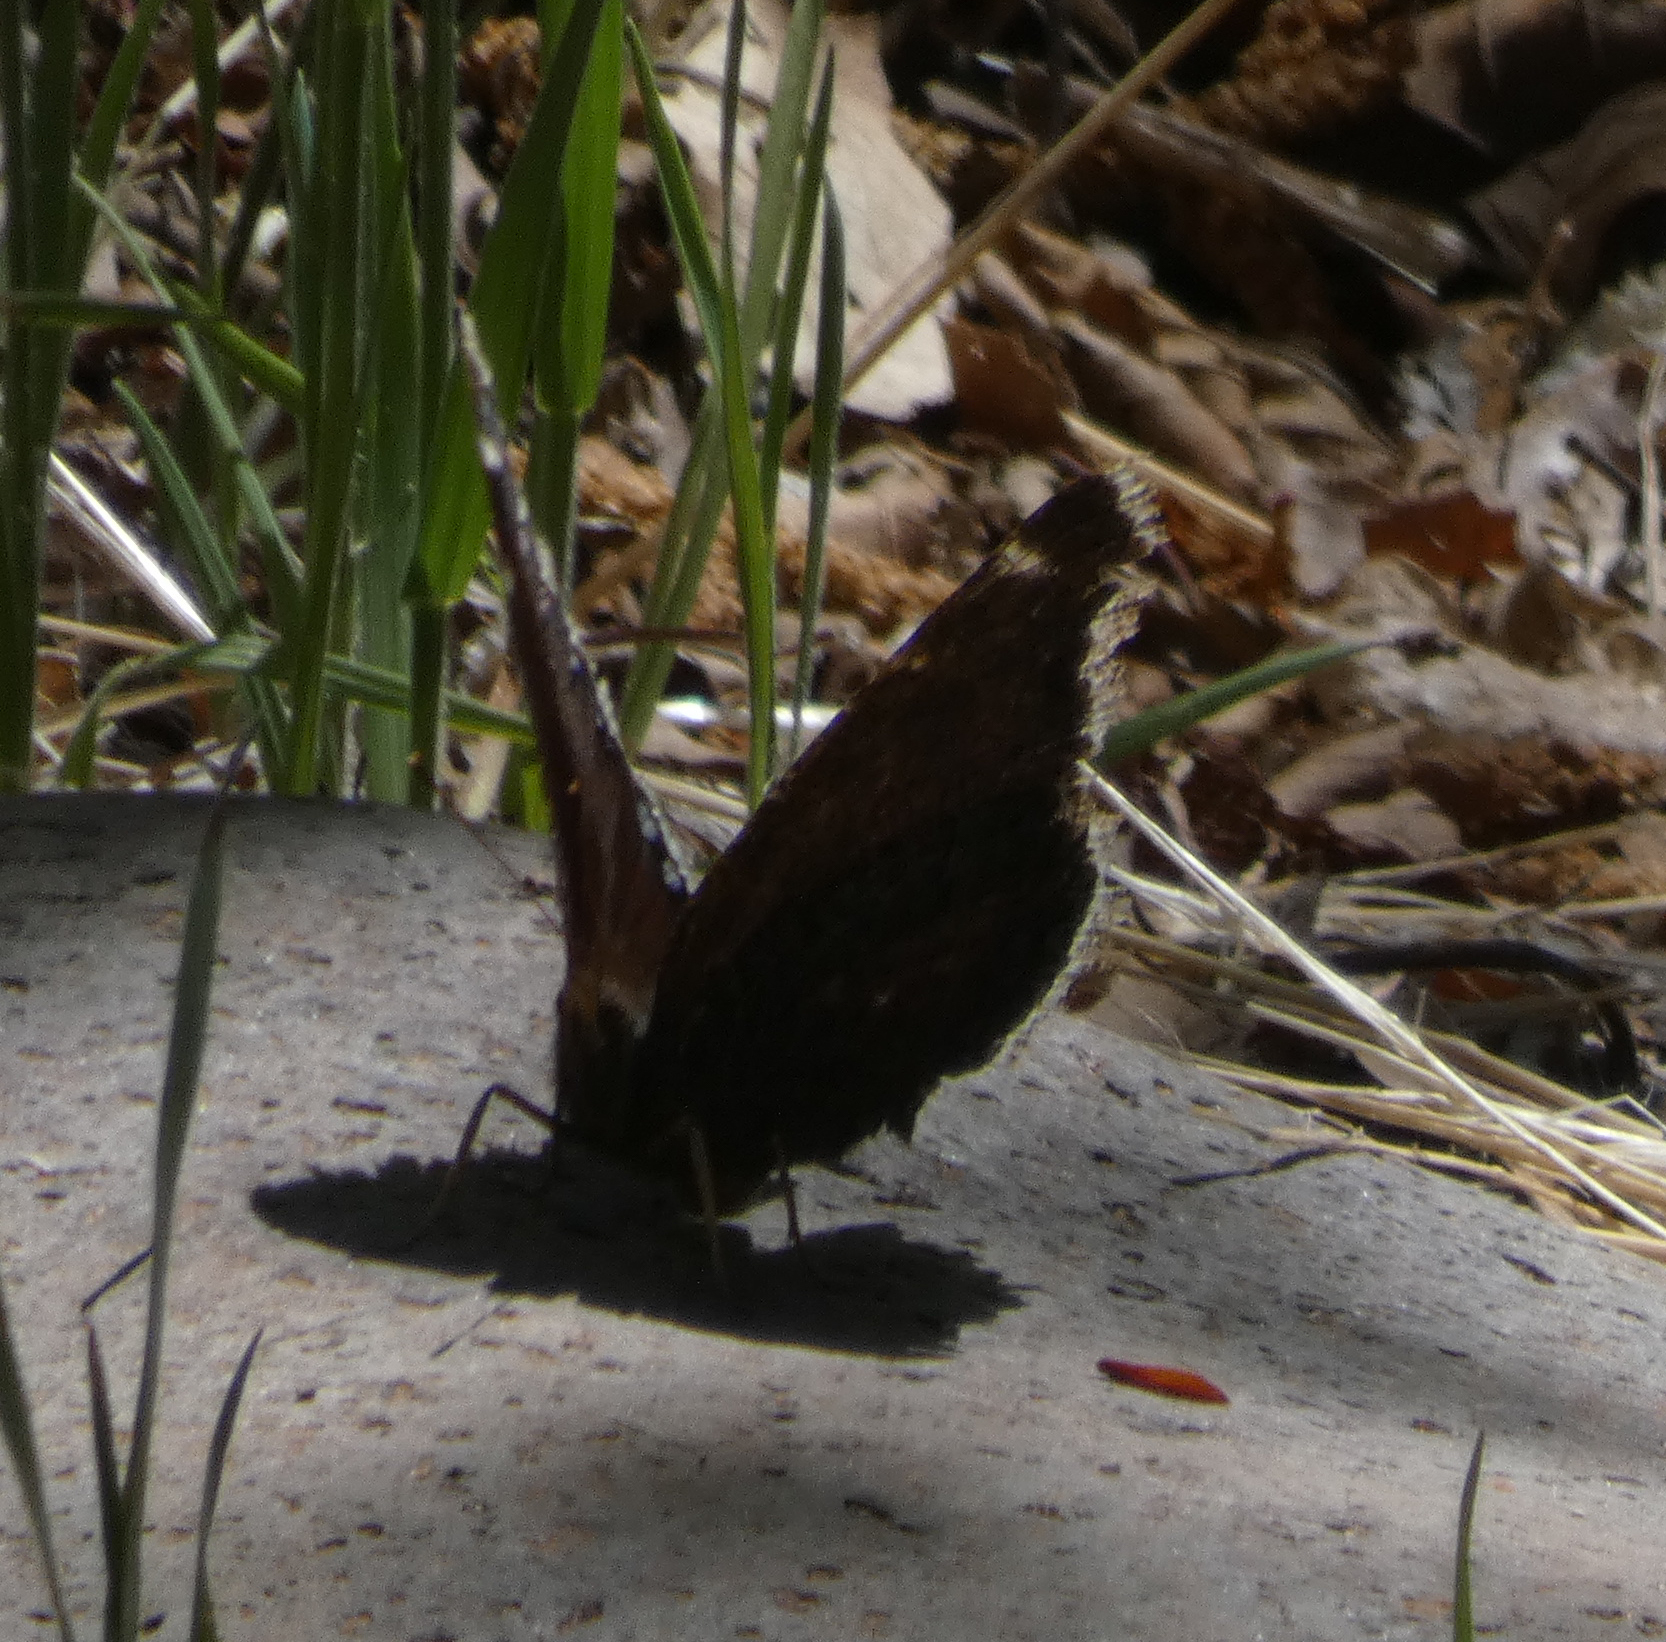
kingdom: Animalia
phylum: Arthropoda
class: Insecta
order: Lepidoptera
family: Nymphalidae
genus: Nymphalis
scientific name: Nymphalis antiopa
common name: Camberwell beauty
